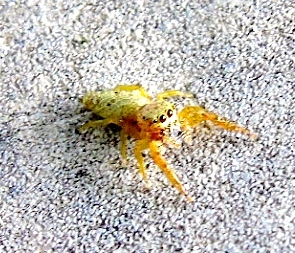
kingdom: Animalia
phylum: Arthropoda
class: Arachnida
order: Araneae
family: Salticidae
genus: Hentzia
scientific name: Hentzia
